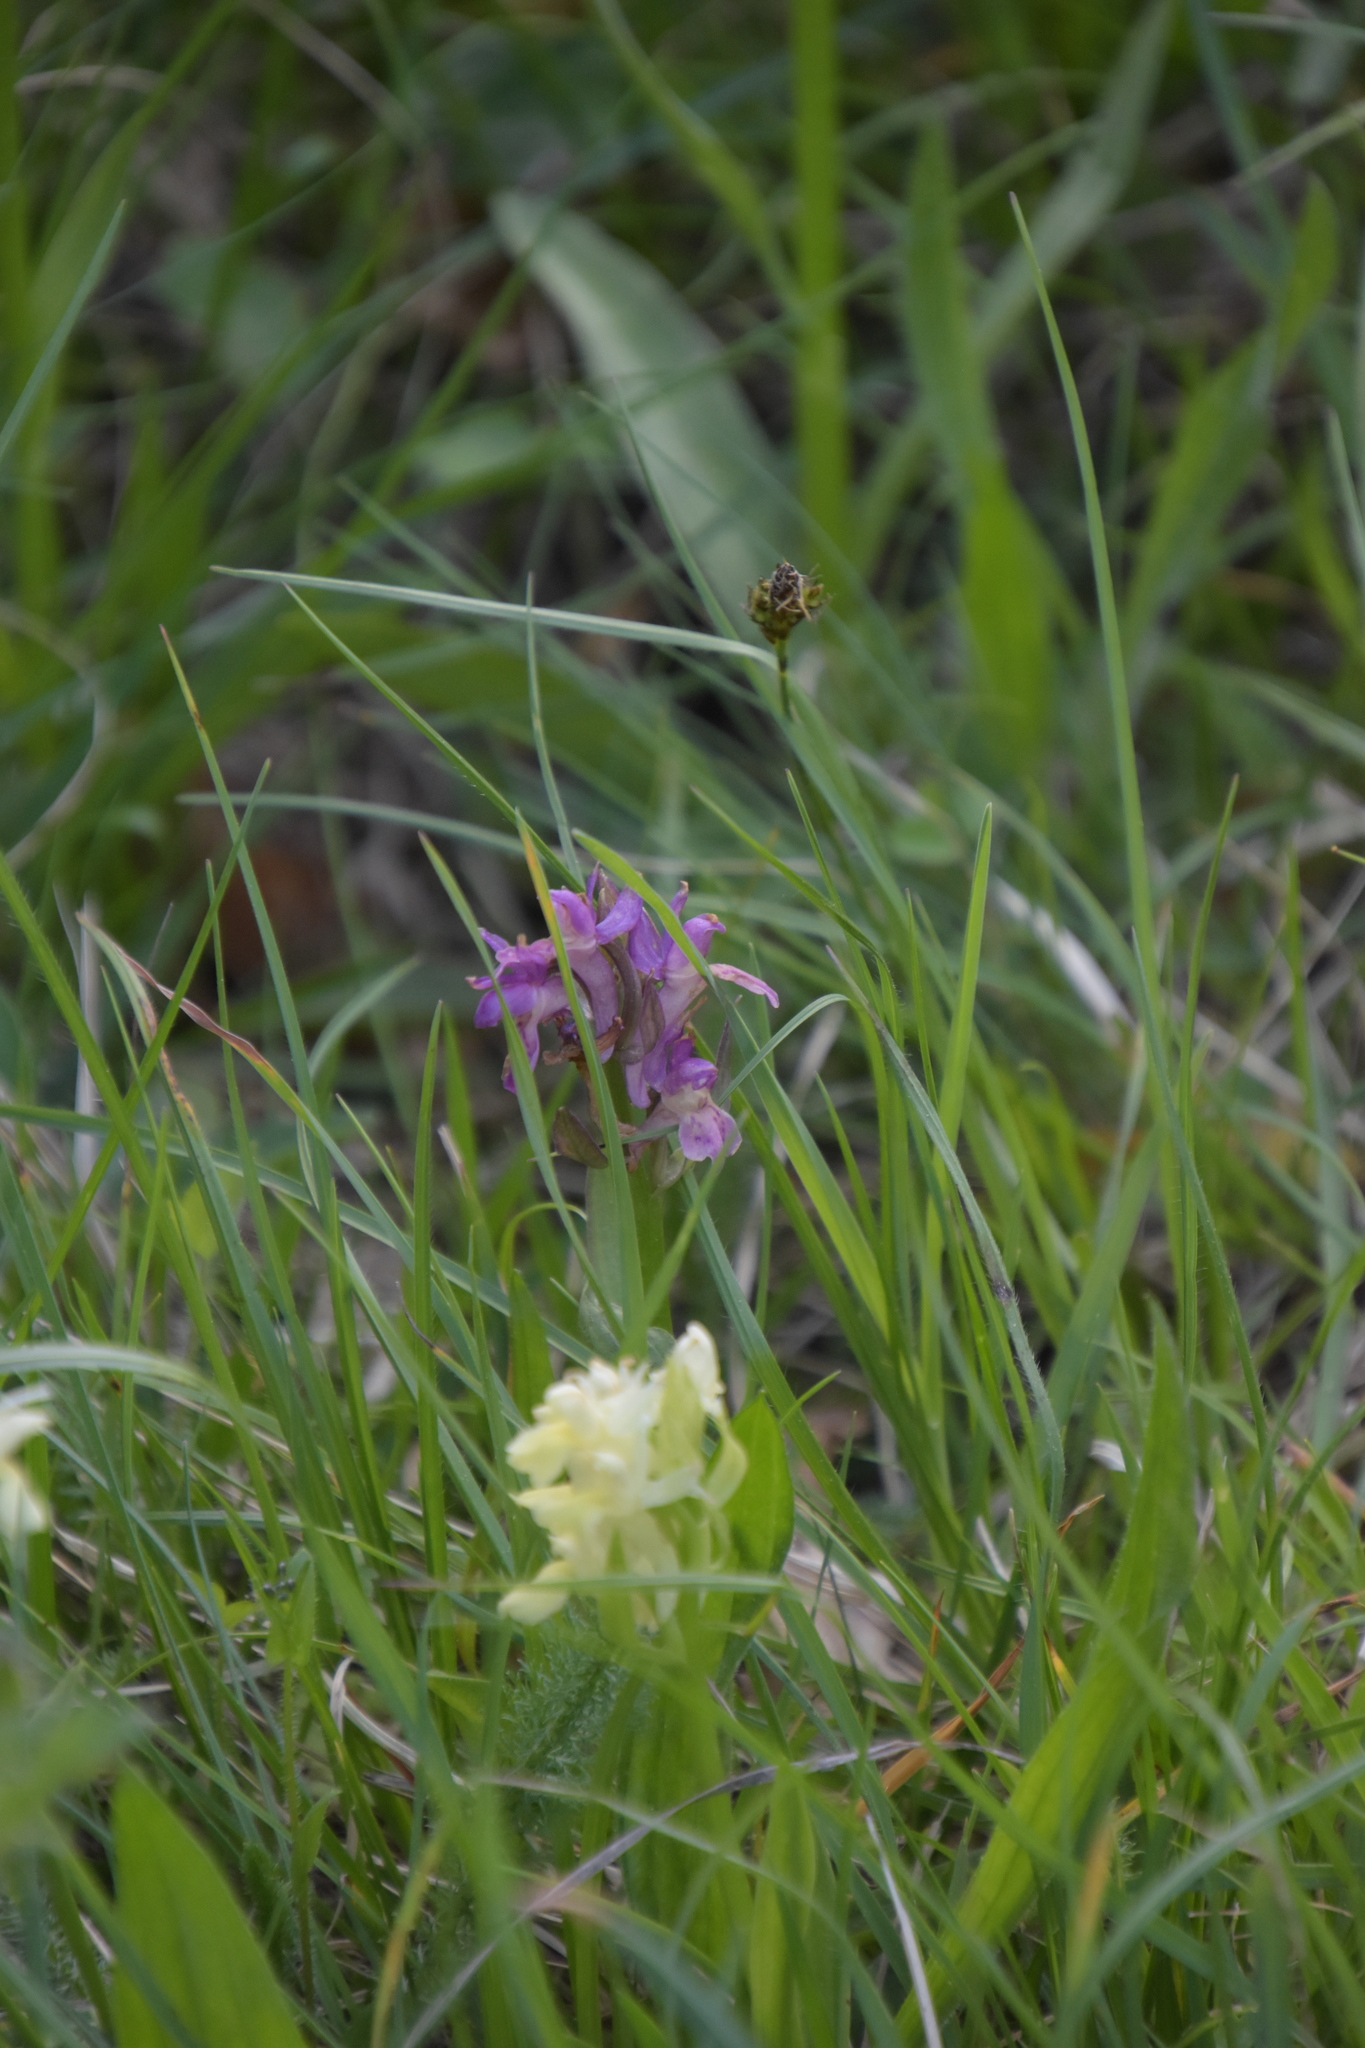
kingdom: Plantae
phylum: Tracheophyta
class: Liliopsida
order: Asparagales
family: Orchidaceae
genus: Dactylorhiza
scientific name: Dactylorhiza sambucina
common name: Elder-flowered orchid
